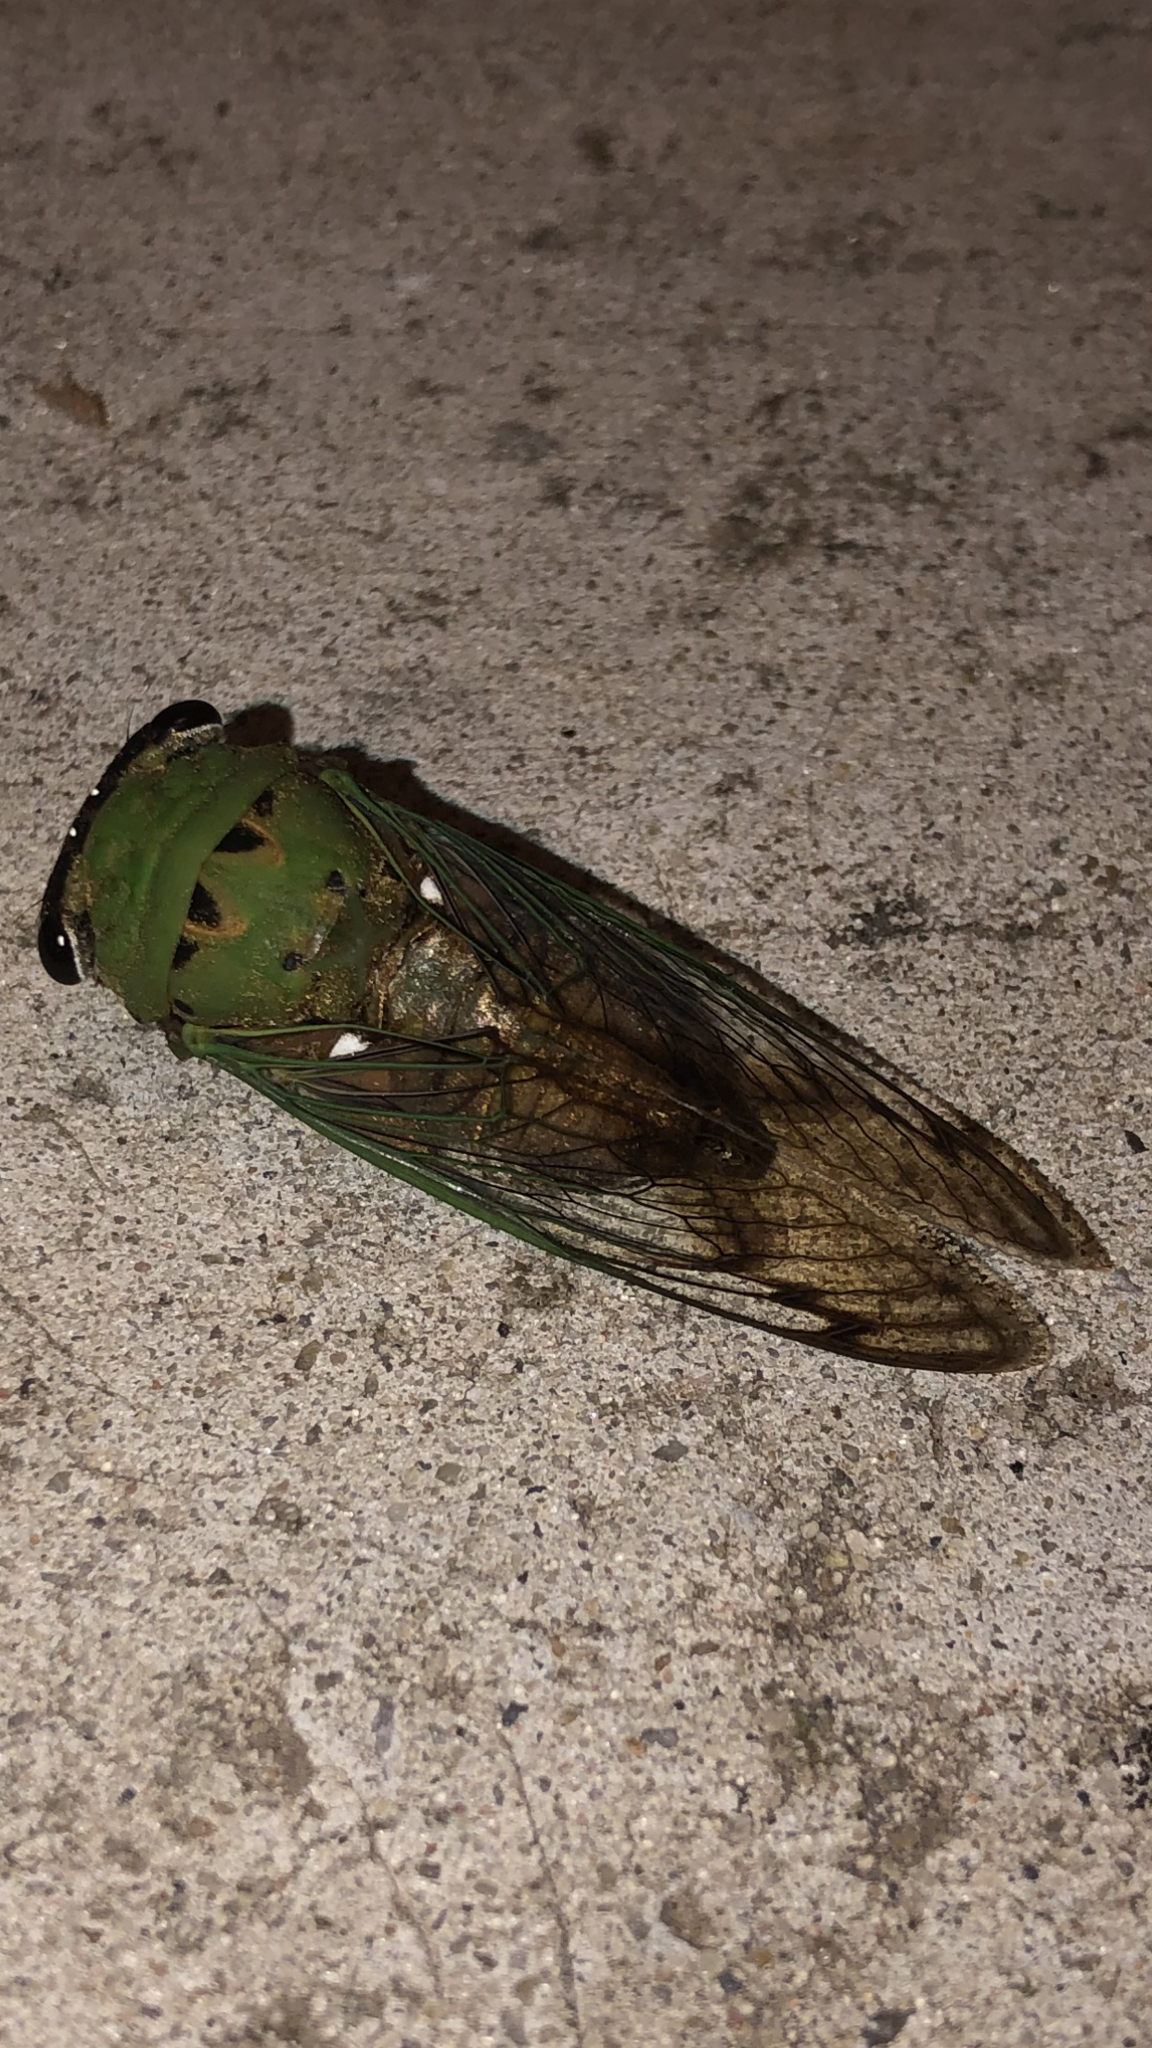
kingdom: Animalia
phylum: Arthropoda
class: Insecta
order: Hemiptera
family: Cicadidae
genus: Neotibicen
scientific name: Neotibicen superbus
